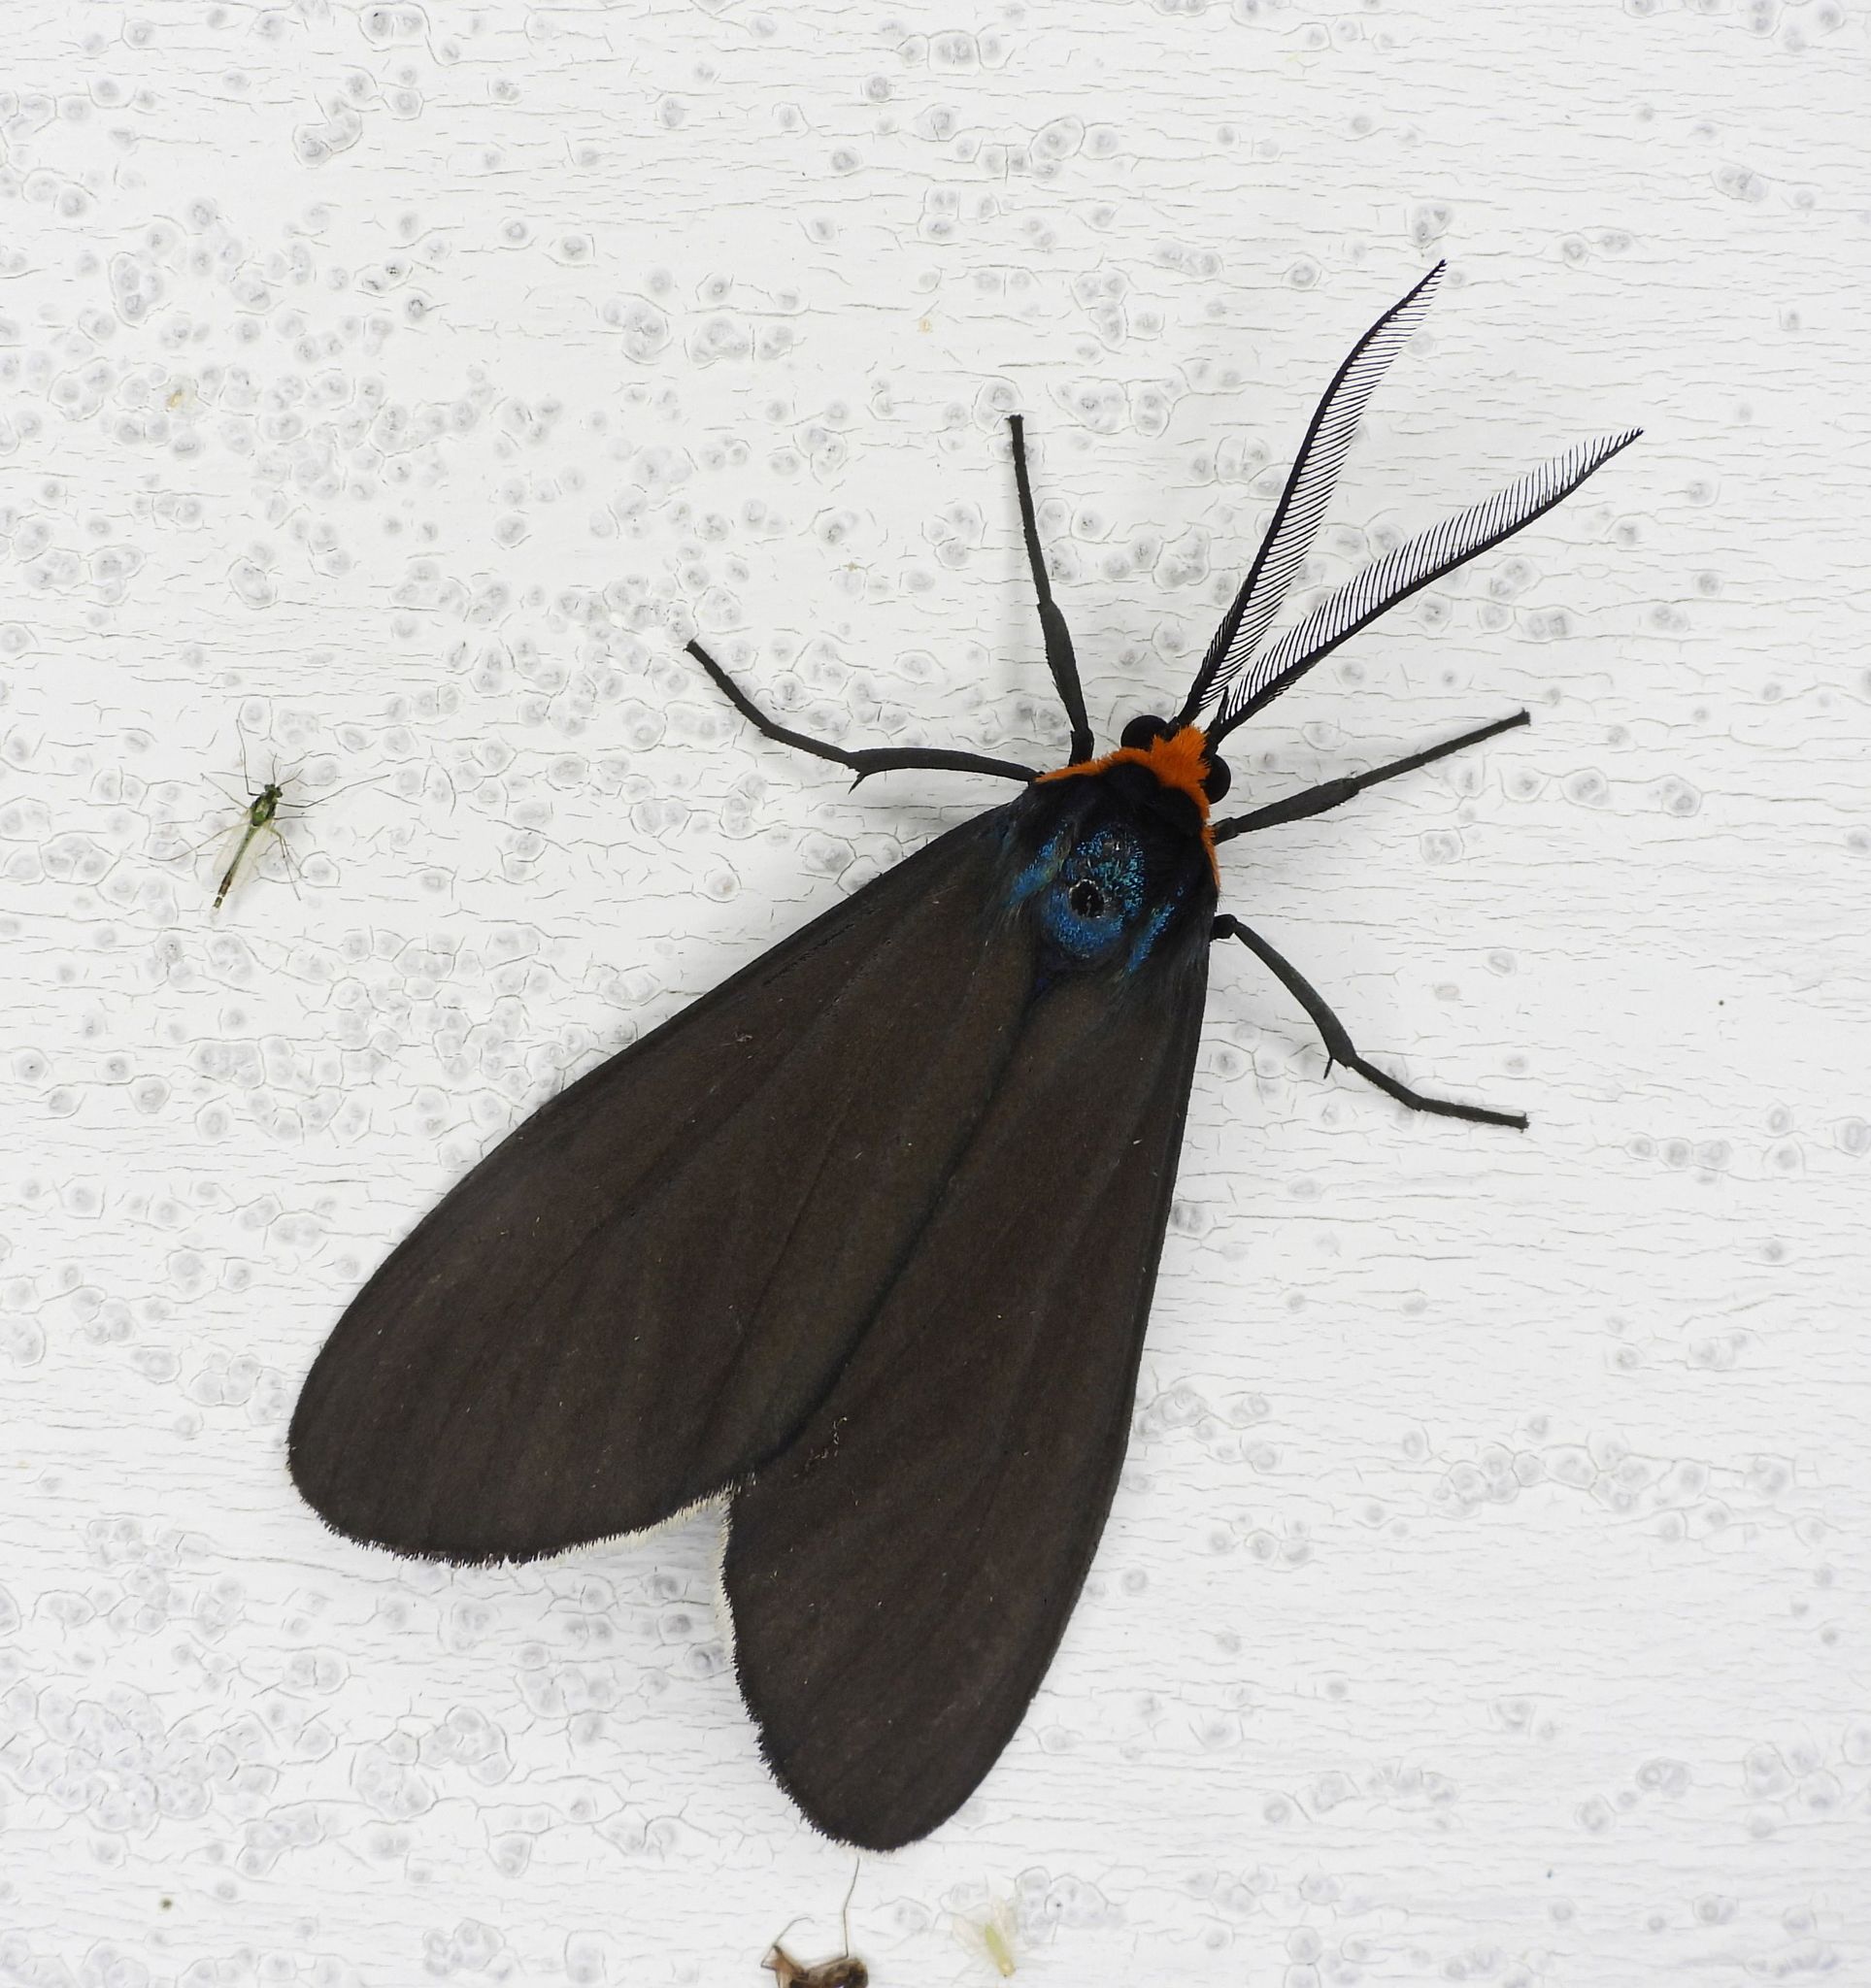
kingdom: Animalia
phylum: Arthropoda
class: Insecta
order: Lepidoptera
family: Erebidae
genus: Ctenucha
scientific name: Ctenucha virginica
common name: Virginia ctenucha moth
